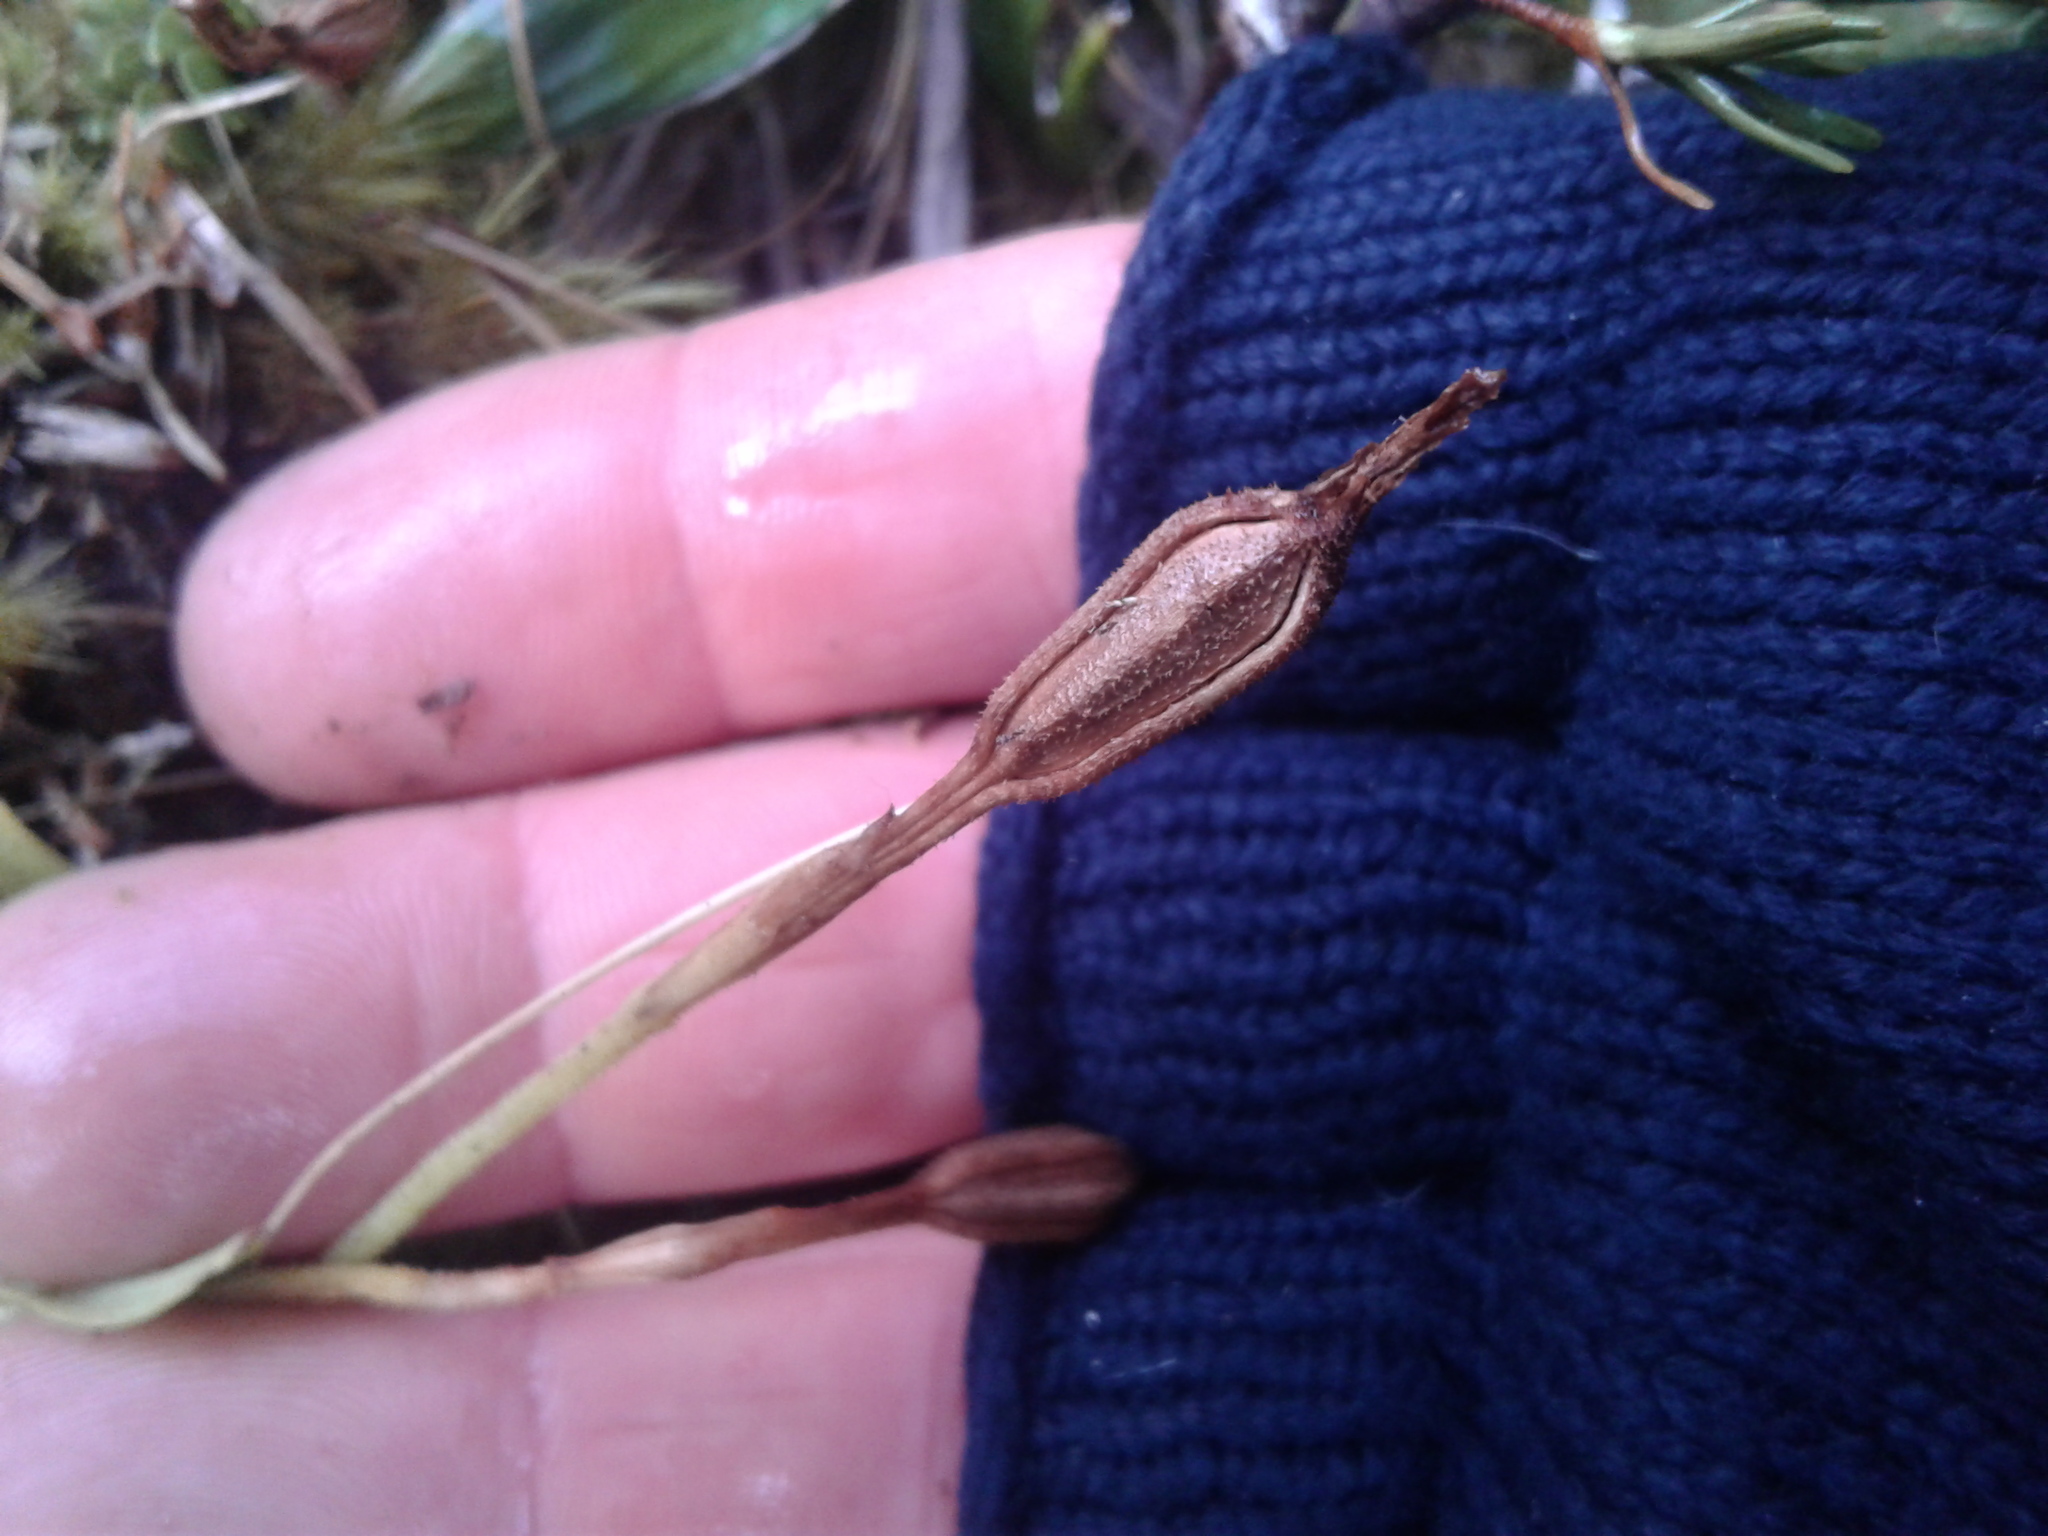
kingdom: Plantae
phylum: Tracheophyta
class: Liliopsida
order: Asparagales
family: Orchidaceae
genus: Aporostylis
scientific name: Aporostylis bifolia
